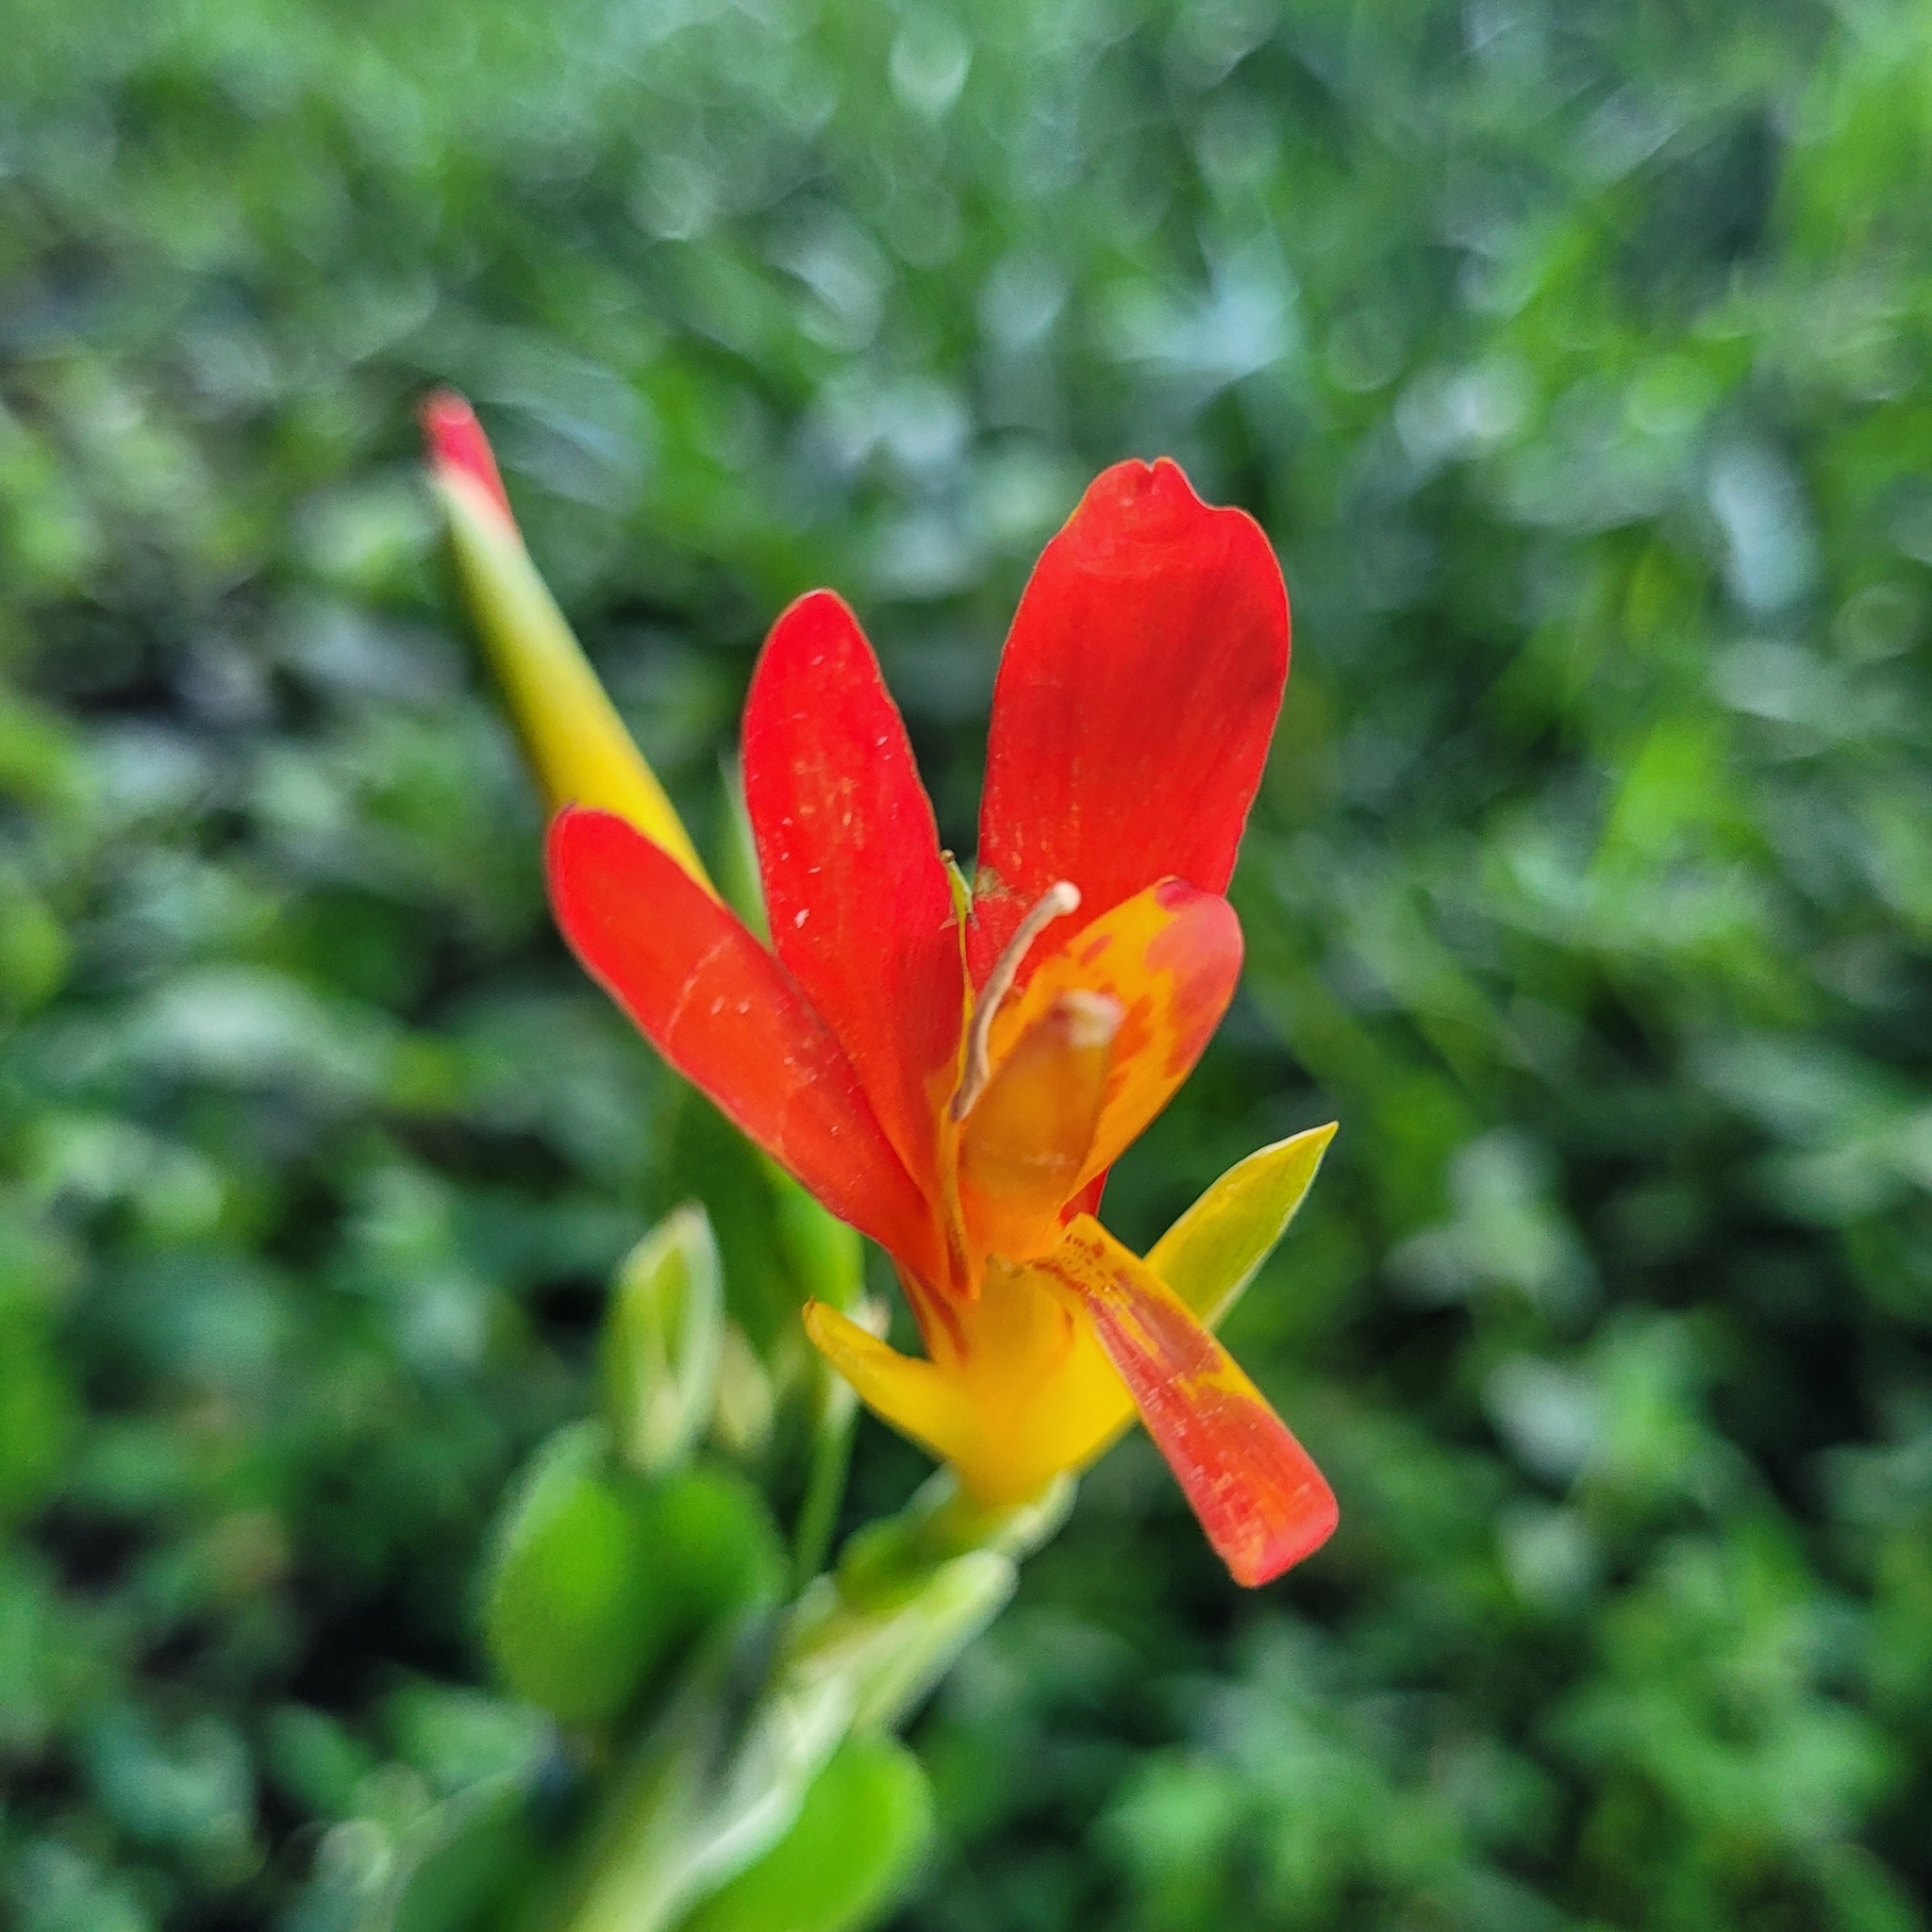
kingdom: Plantae
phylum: Tracheophyta
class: Liliopsida
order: Zingiberales
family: Cannaceae
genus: Canna
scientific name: Canna indica
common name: Indian shot
